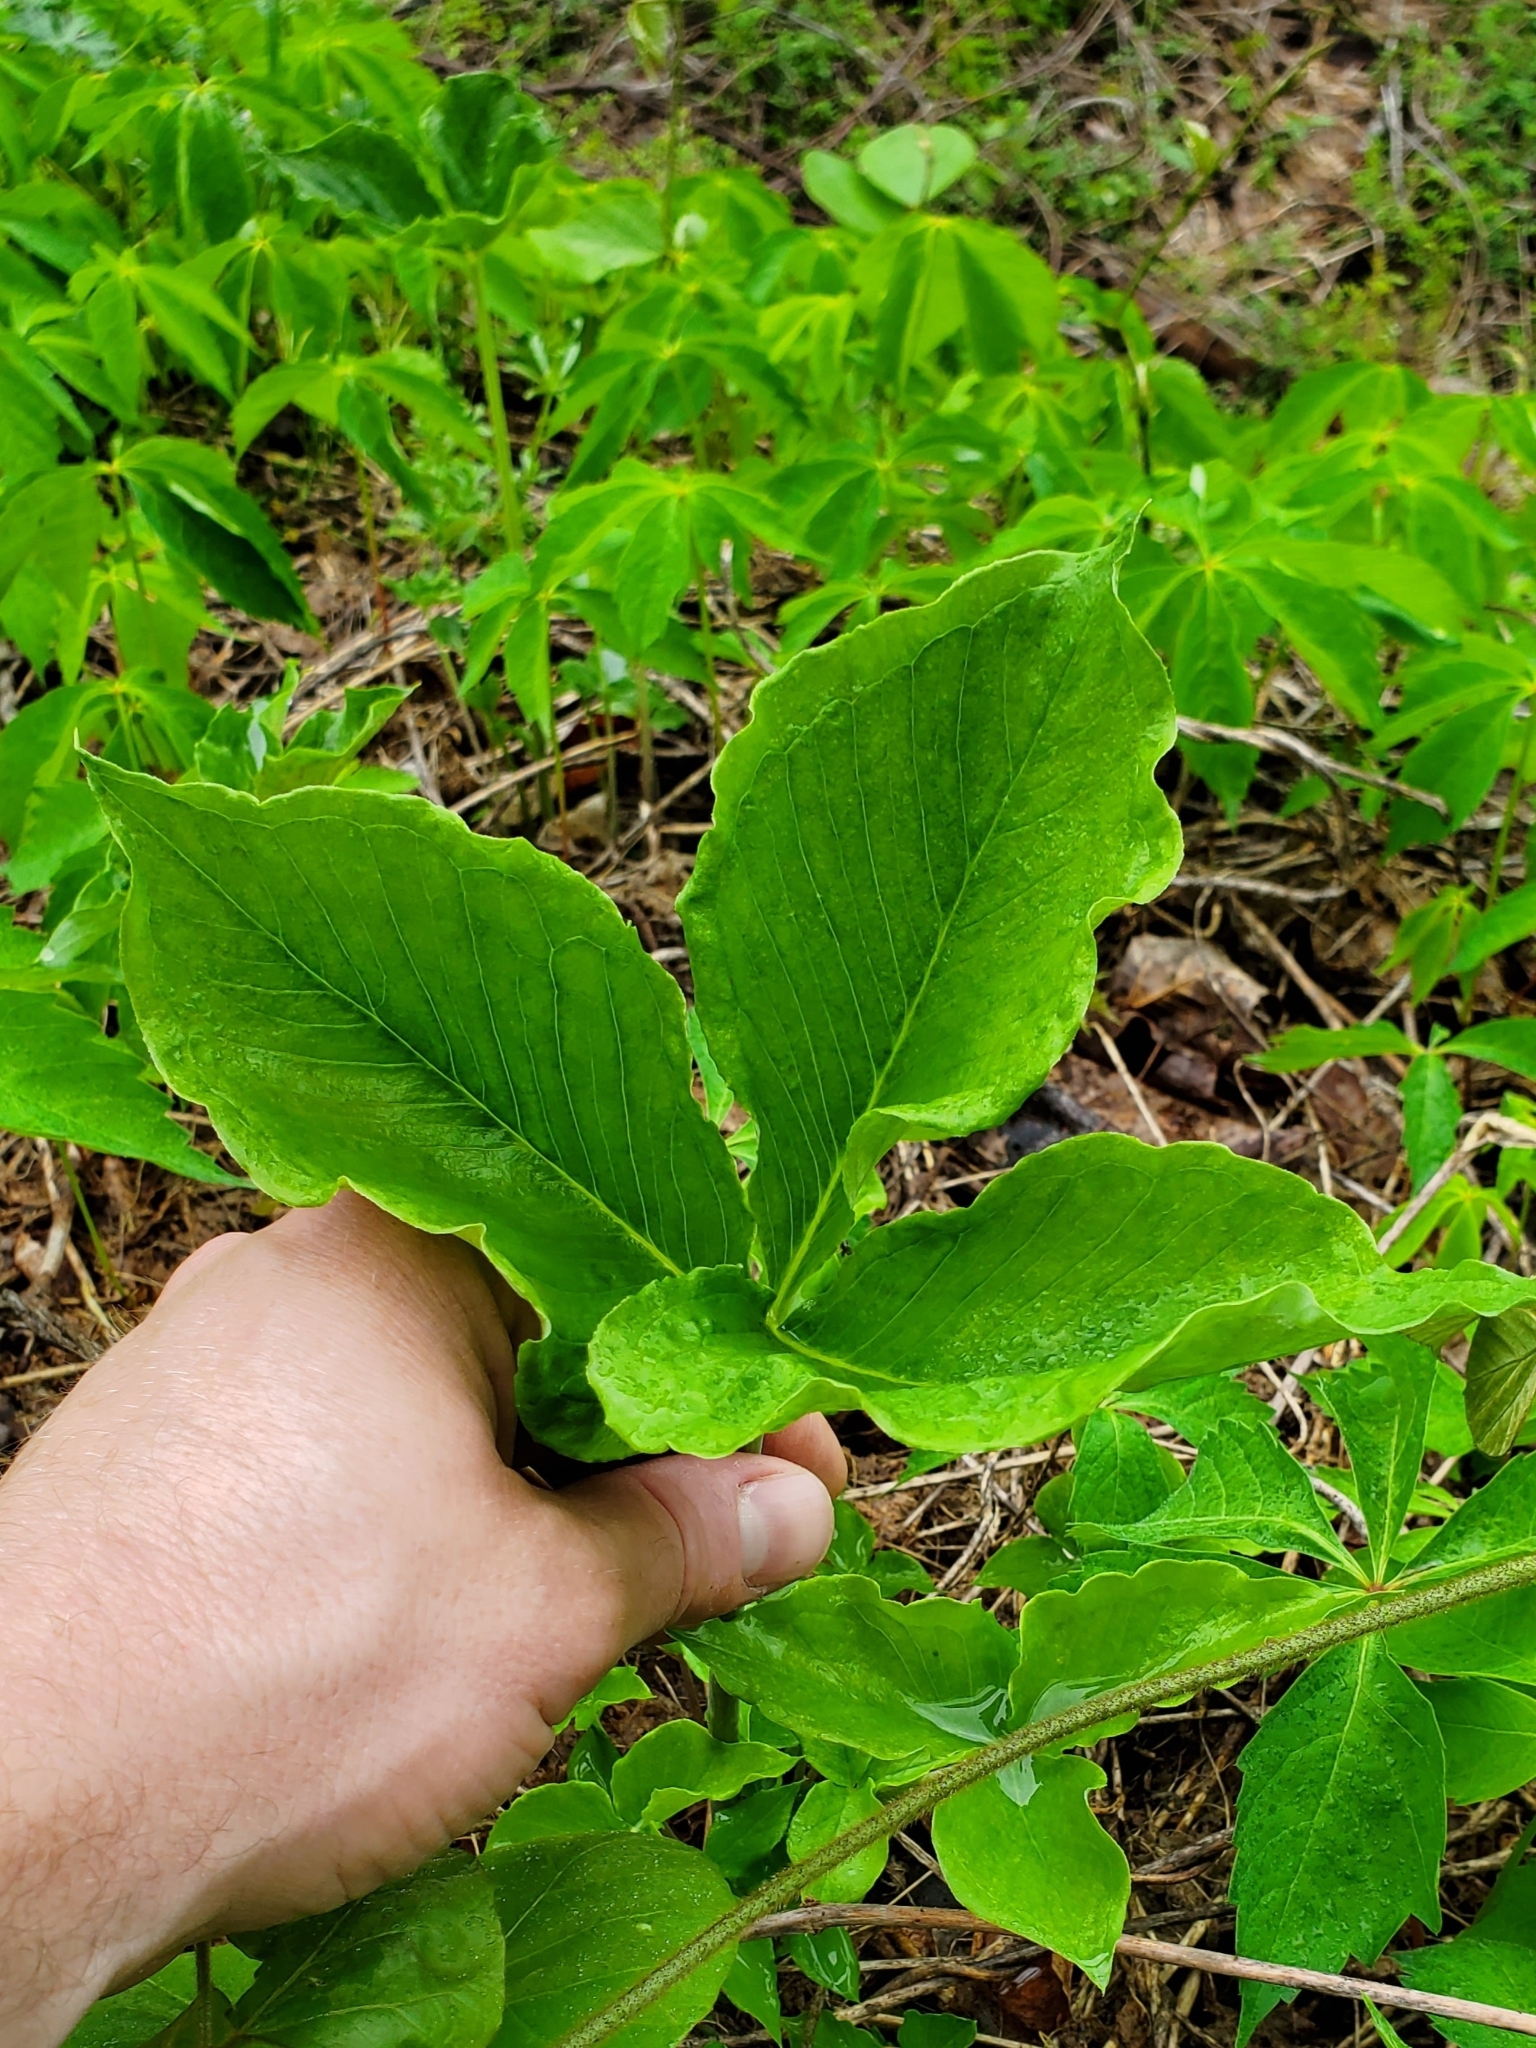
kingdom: Plantae
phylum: Tracheophyta
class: Liliopsida
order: Alismatales
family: Araceae
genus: Arisaema
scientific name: Arisaema triphyllum
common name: Jack-in-the-pulpit
